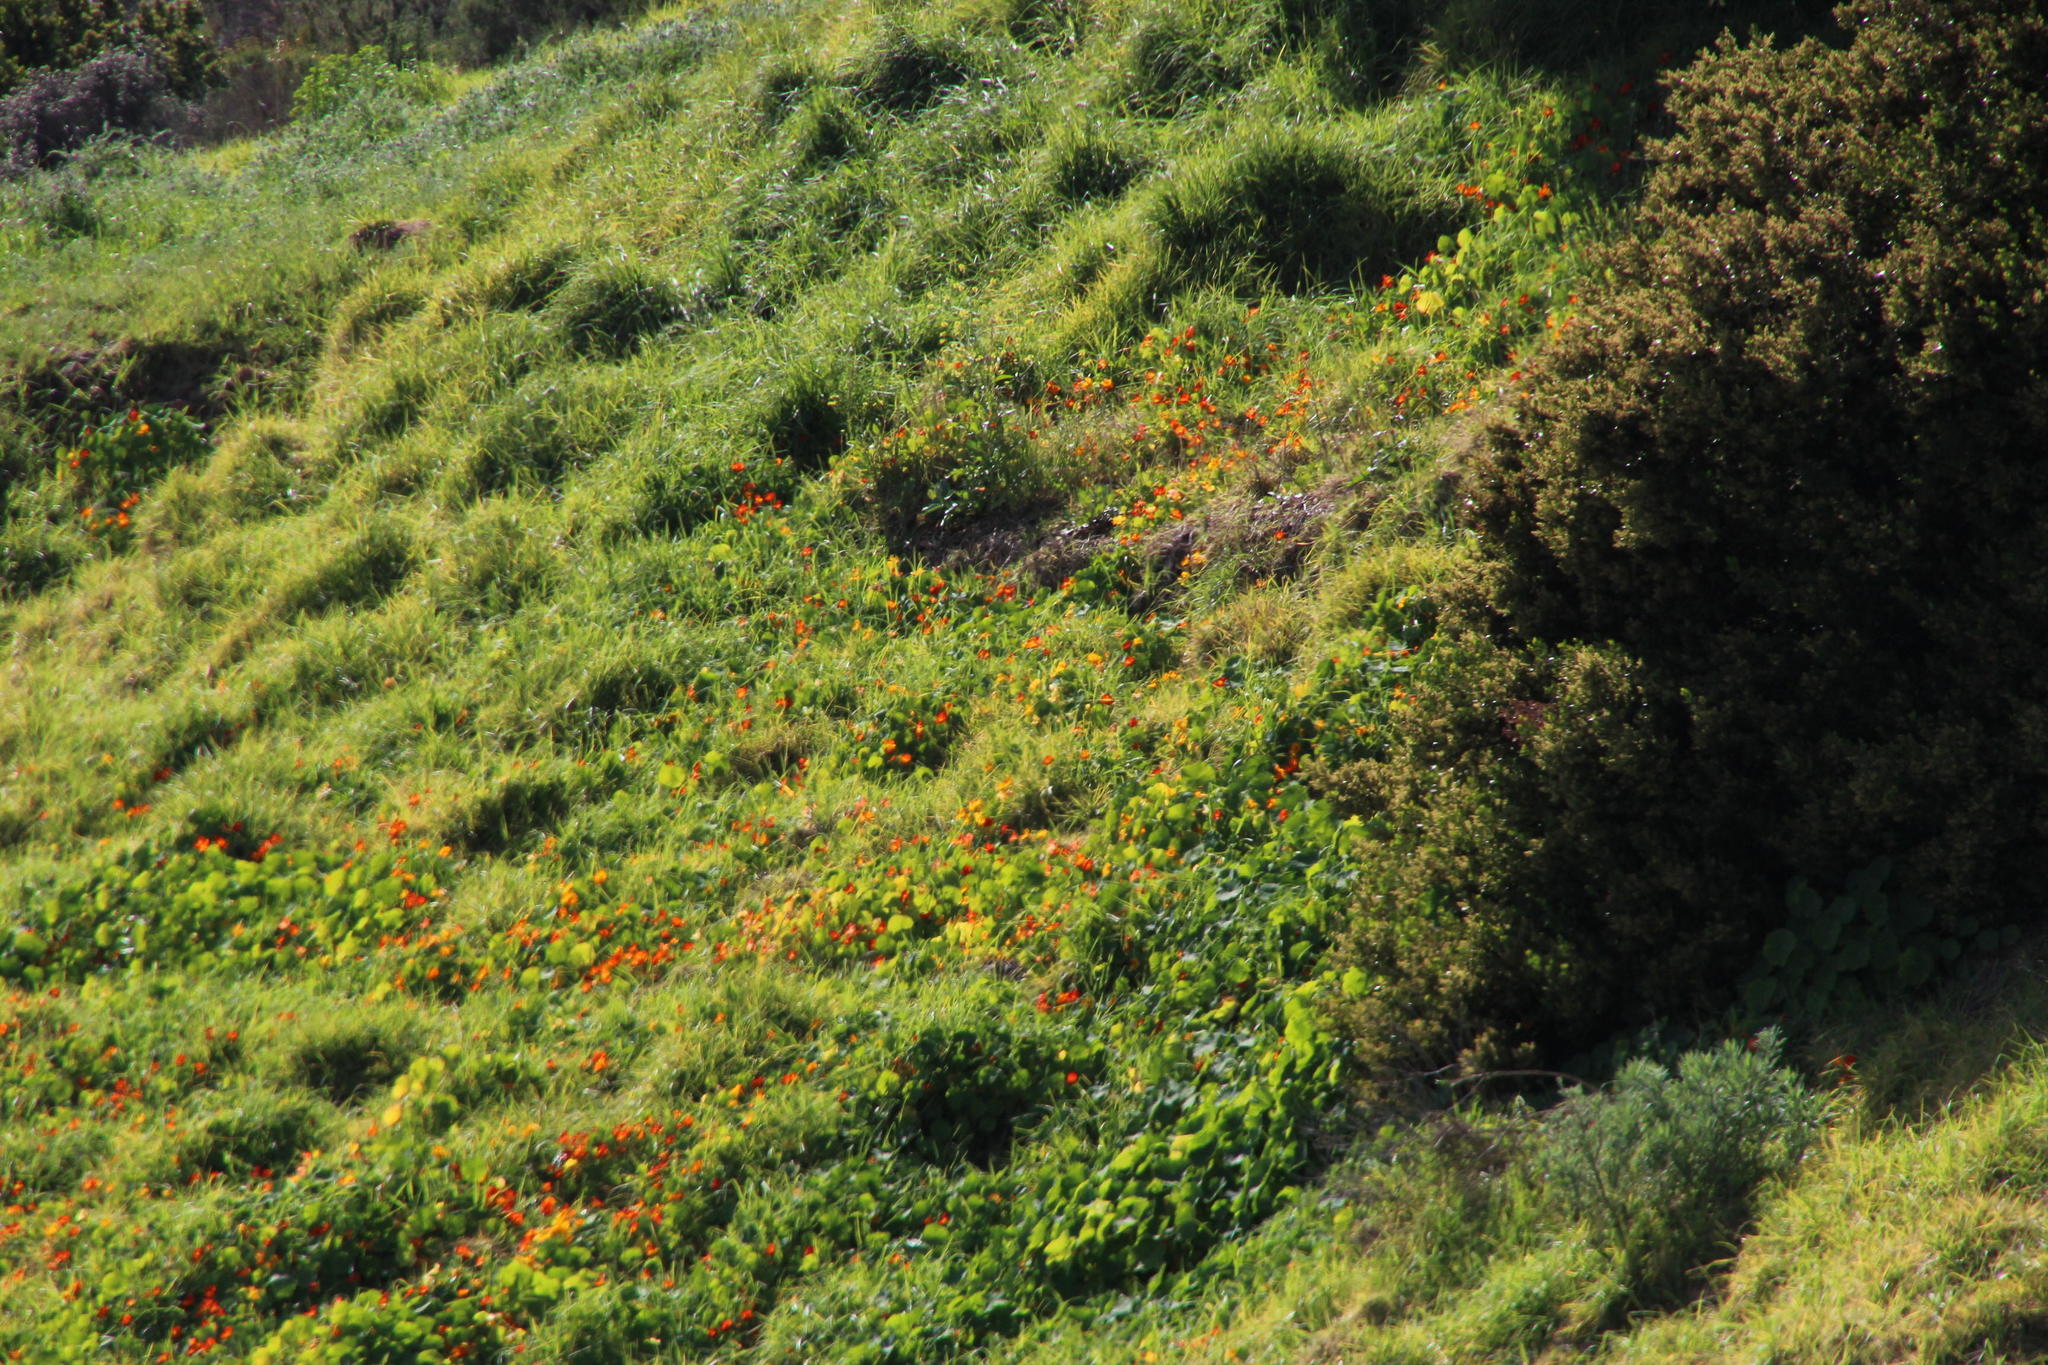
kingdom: Plantae
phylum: Tracheophyta
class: Magnoliopsida
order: Brassicales
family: Tropaeolaceae
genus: Tropaeolum
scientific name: Tropaeolum majus
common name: Nasturtium
